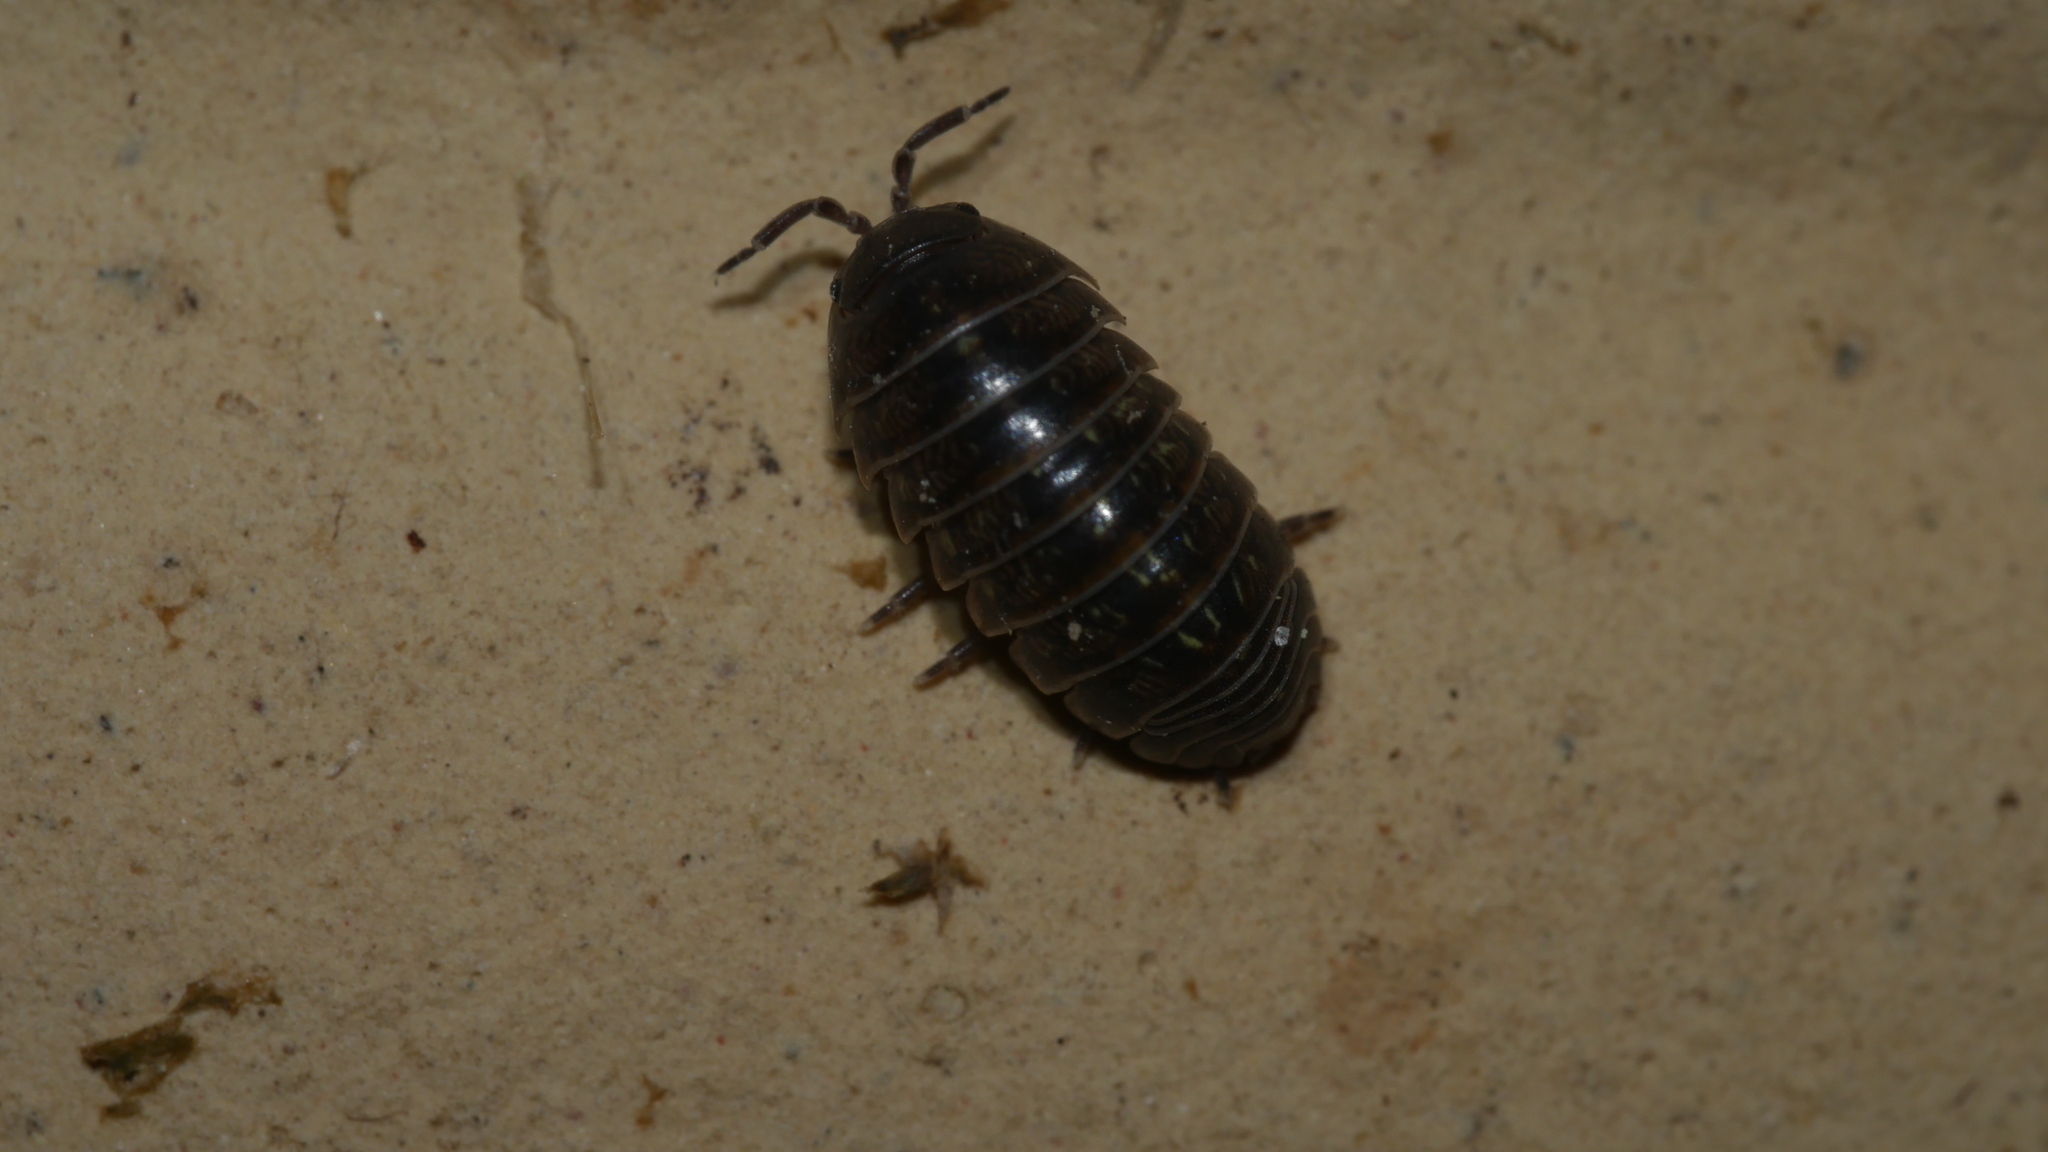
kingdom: Animalia
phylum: Arthropoda
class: Malacostraca
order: Isopoda
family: Armadillidiidae
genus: Armadillidium
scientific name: Armadillidium vulgare
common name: Common pill woodlouse
